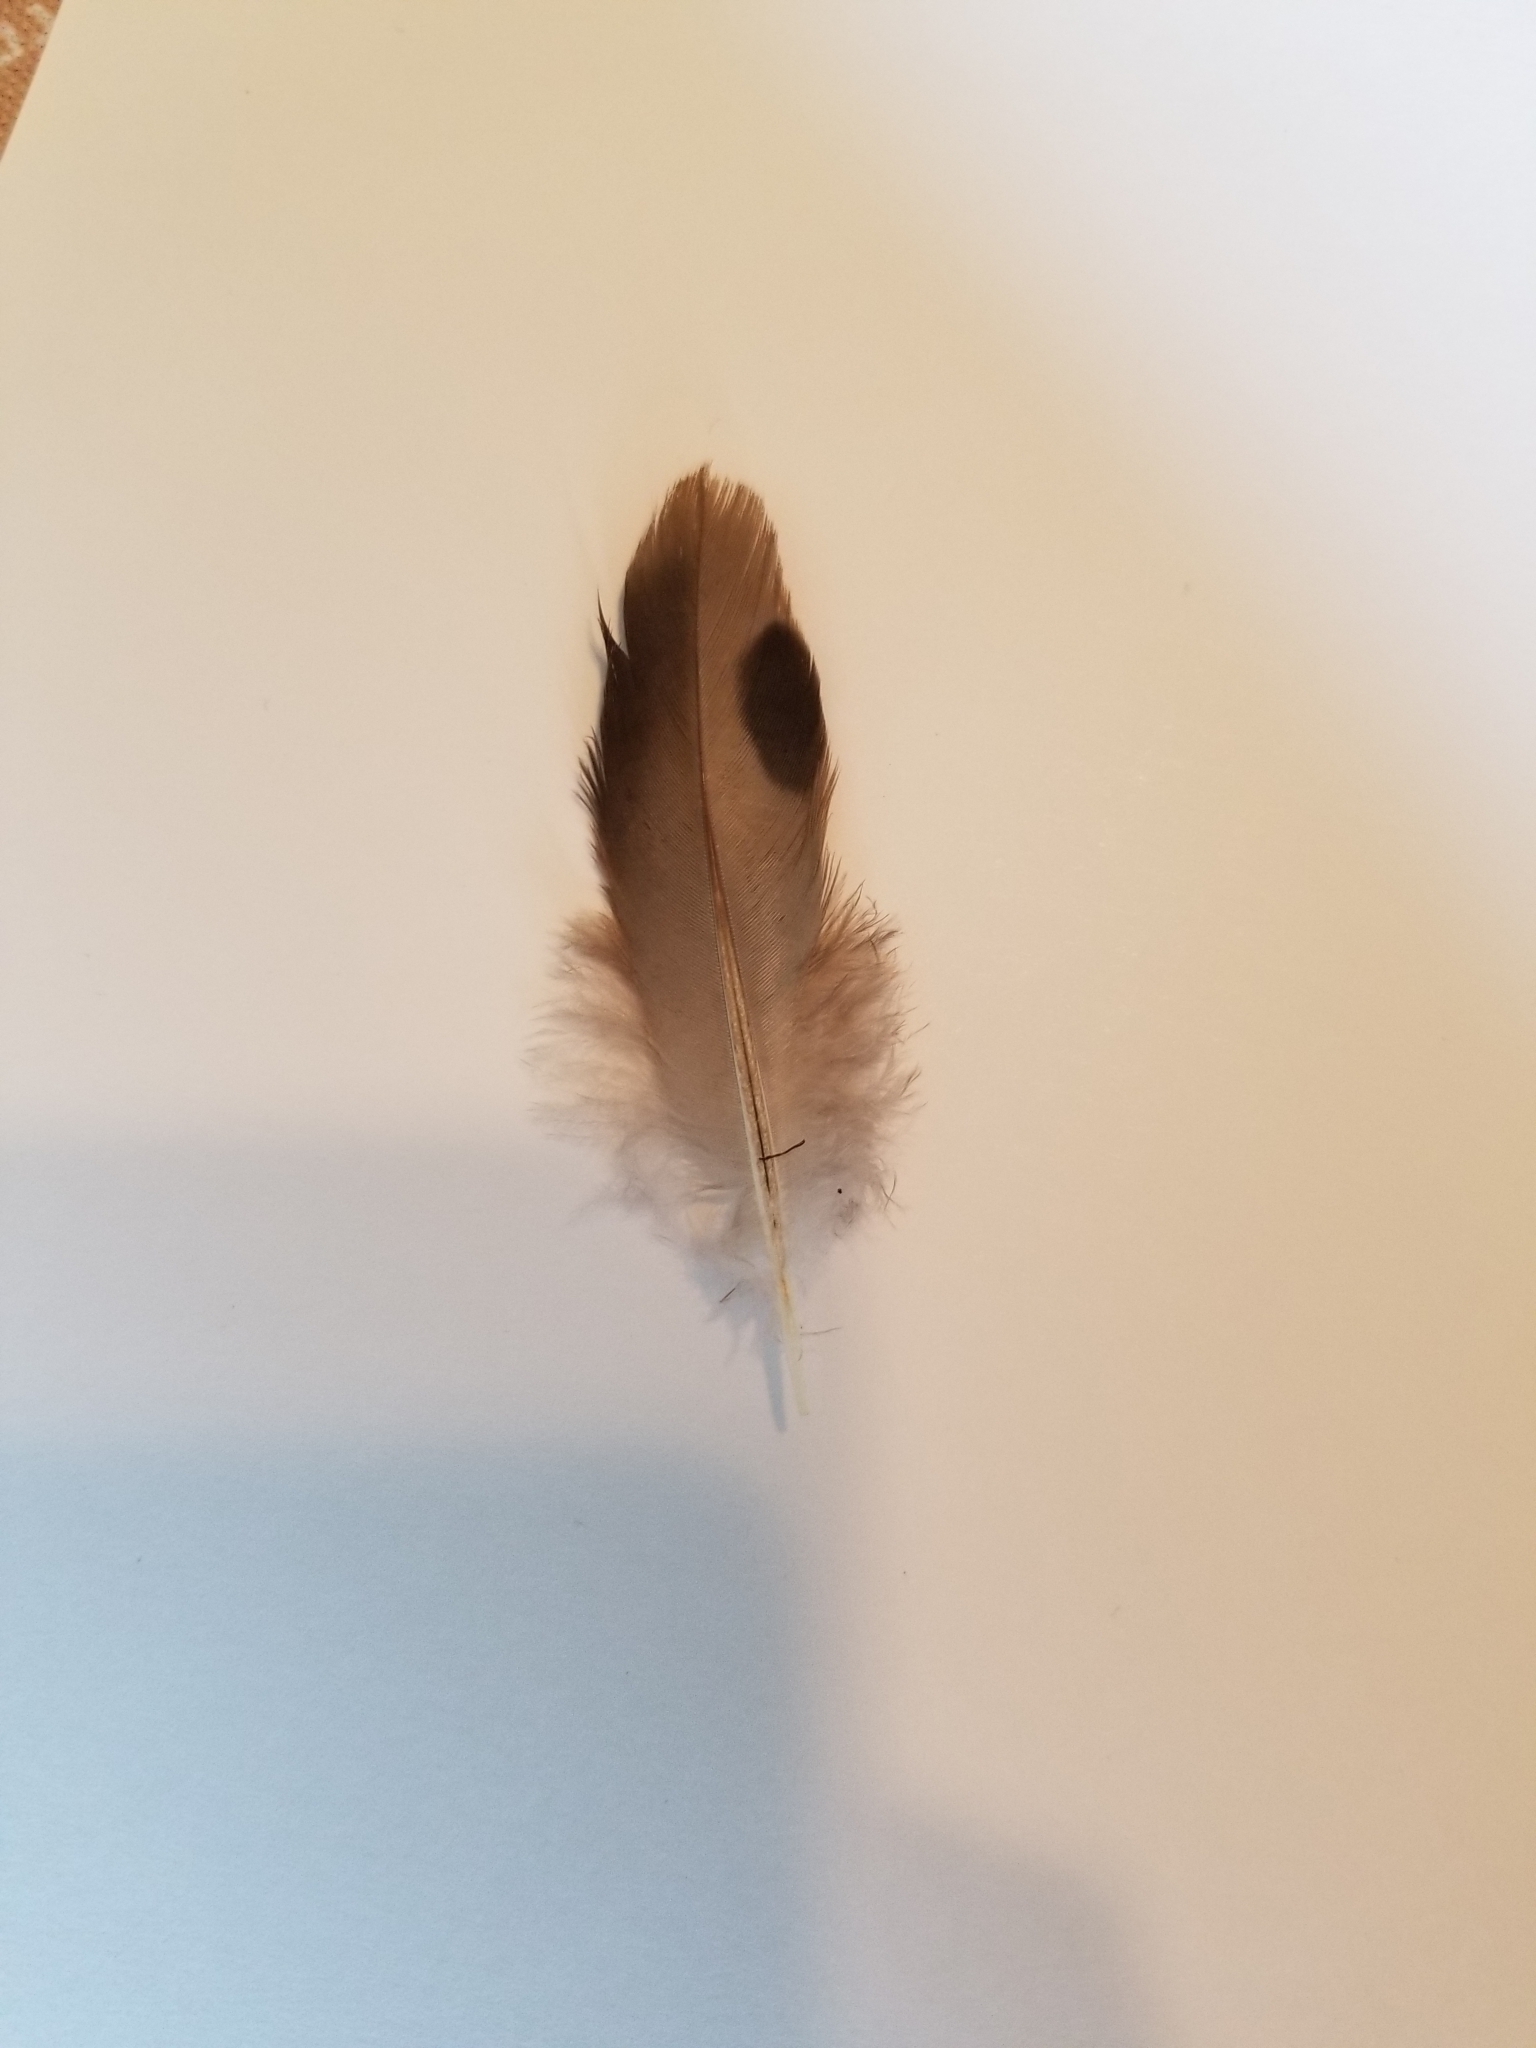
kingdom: Animalia
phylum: Chordata
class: Aves
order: Columbiformes
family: Columbidae
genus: Zenaida
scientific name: Zenaida macroura
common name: Mourning dove
